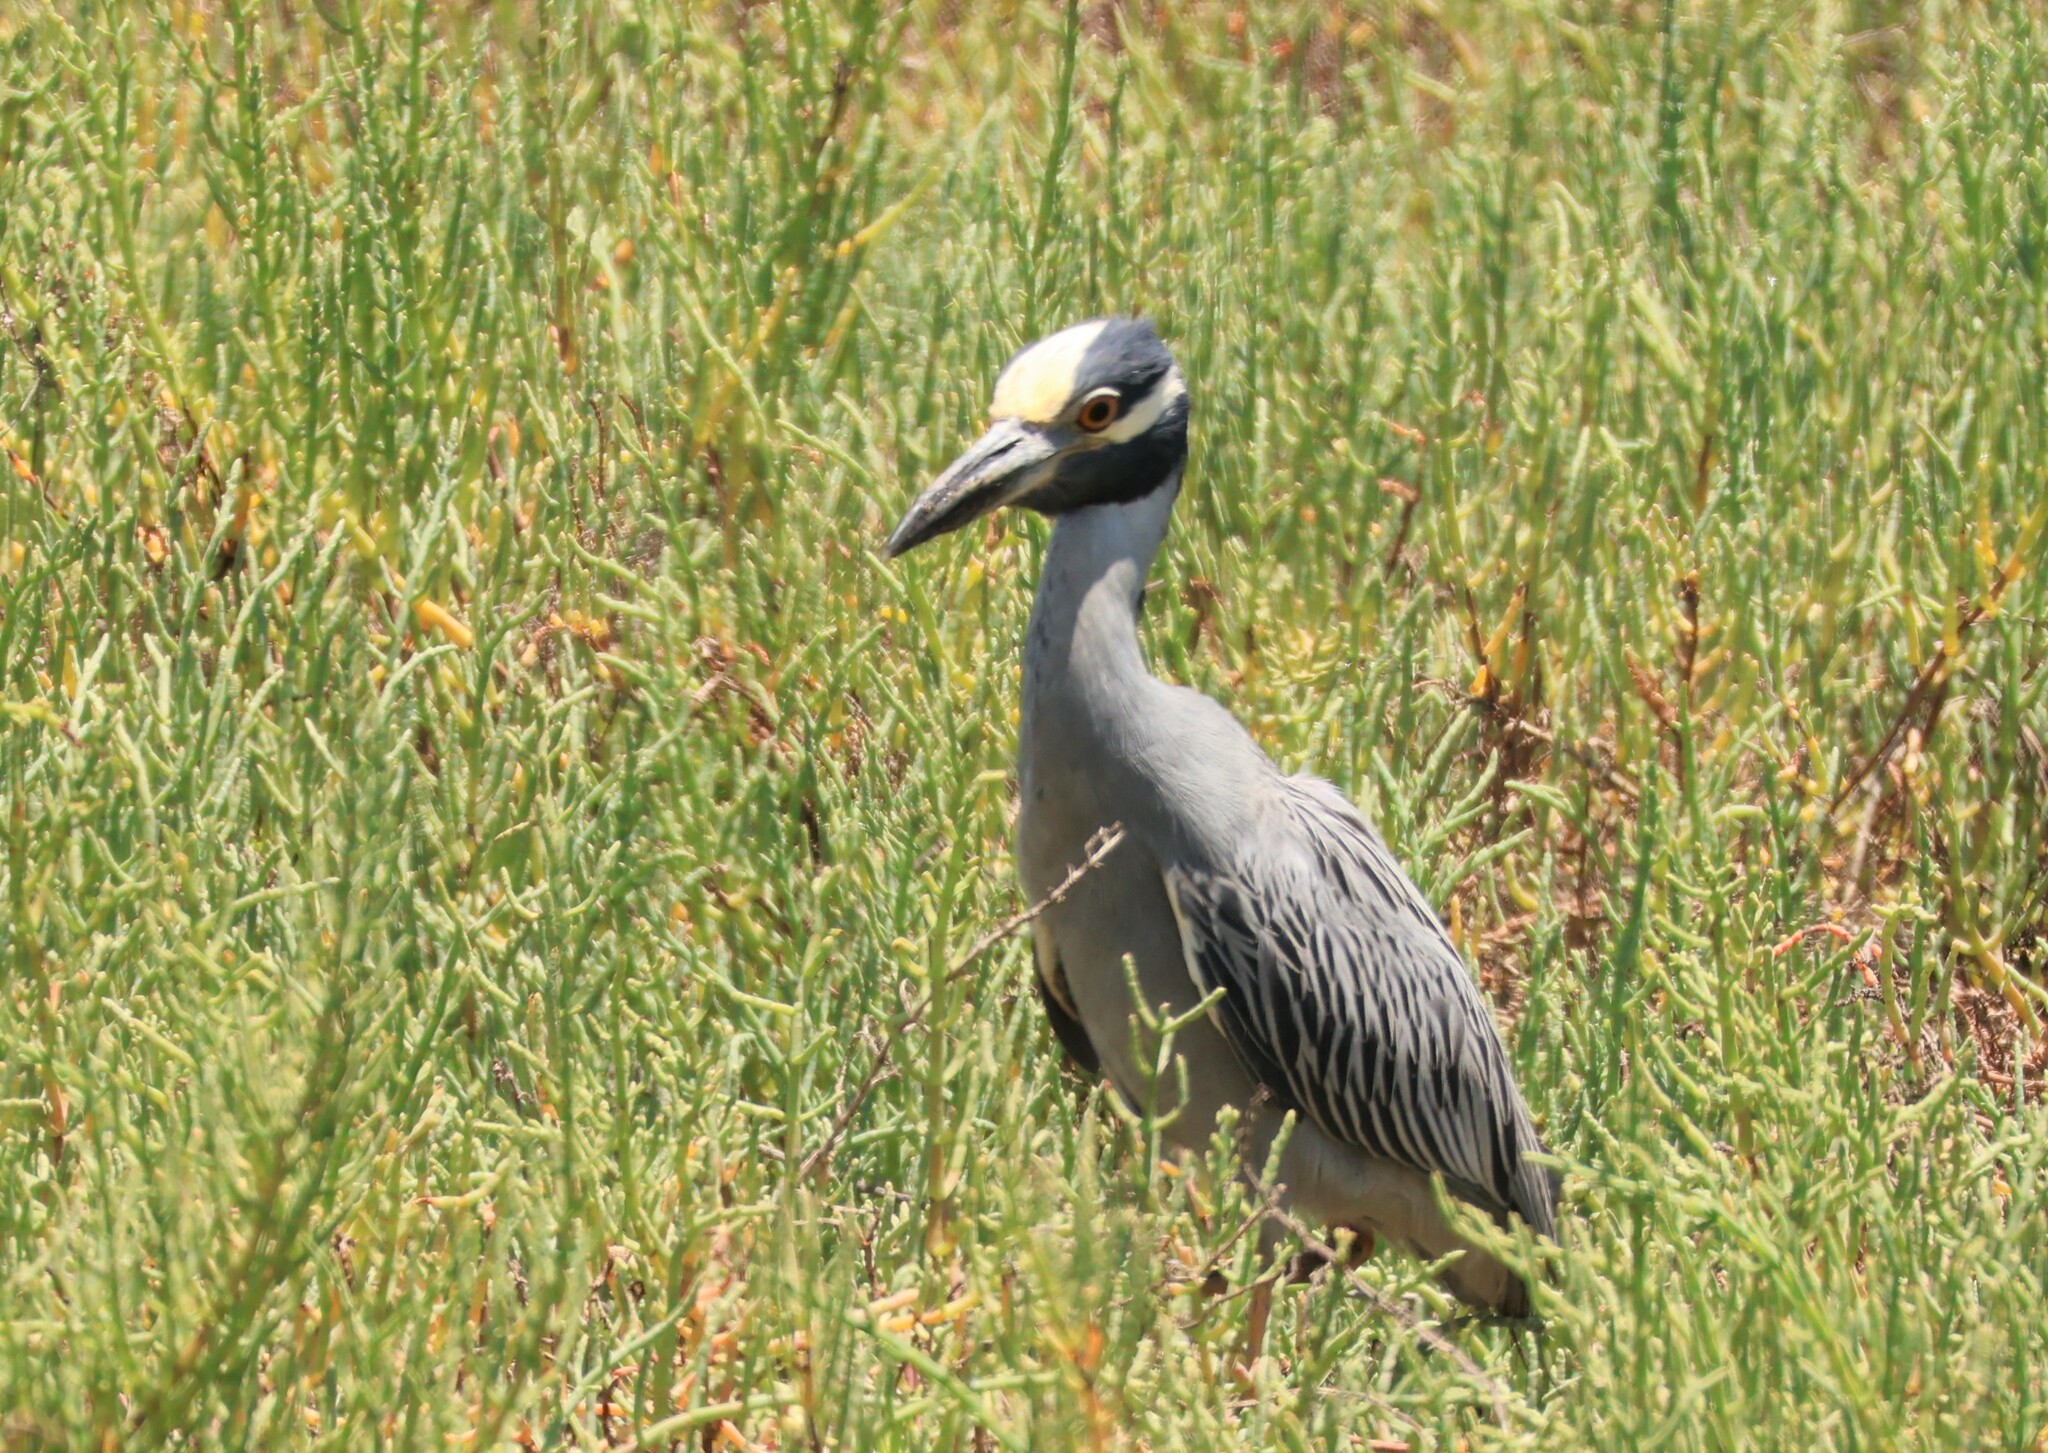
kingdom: Animalia
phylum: Chordata
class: Aves
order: Pelecaniformes
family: Ardeidae
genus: Nyctanassa
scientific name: Nyctanassa violacea
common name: Yellow-crowned night heron
